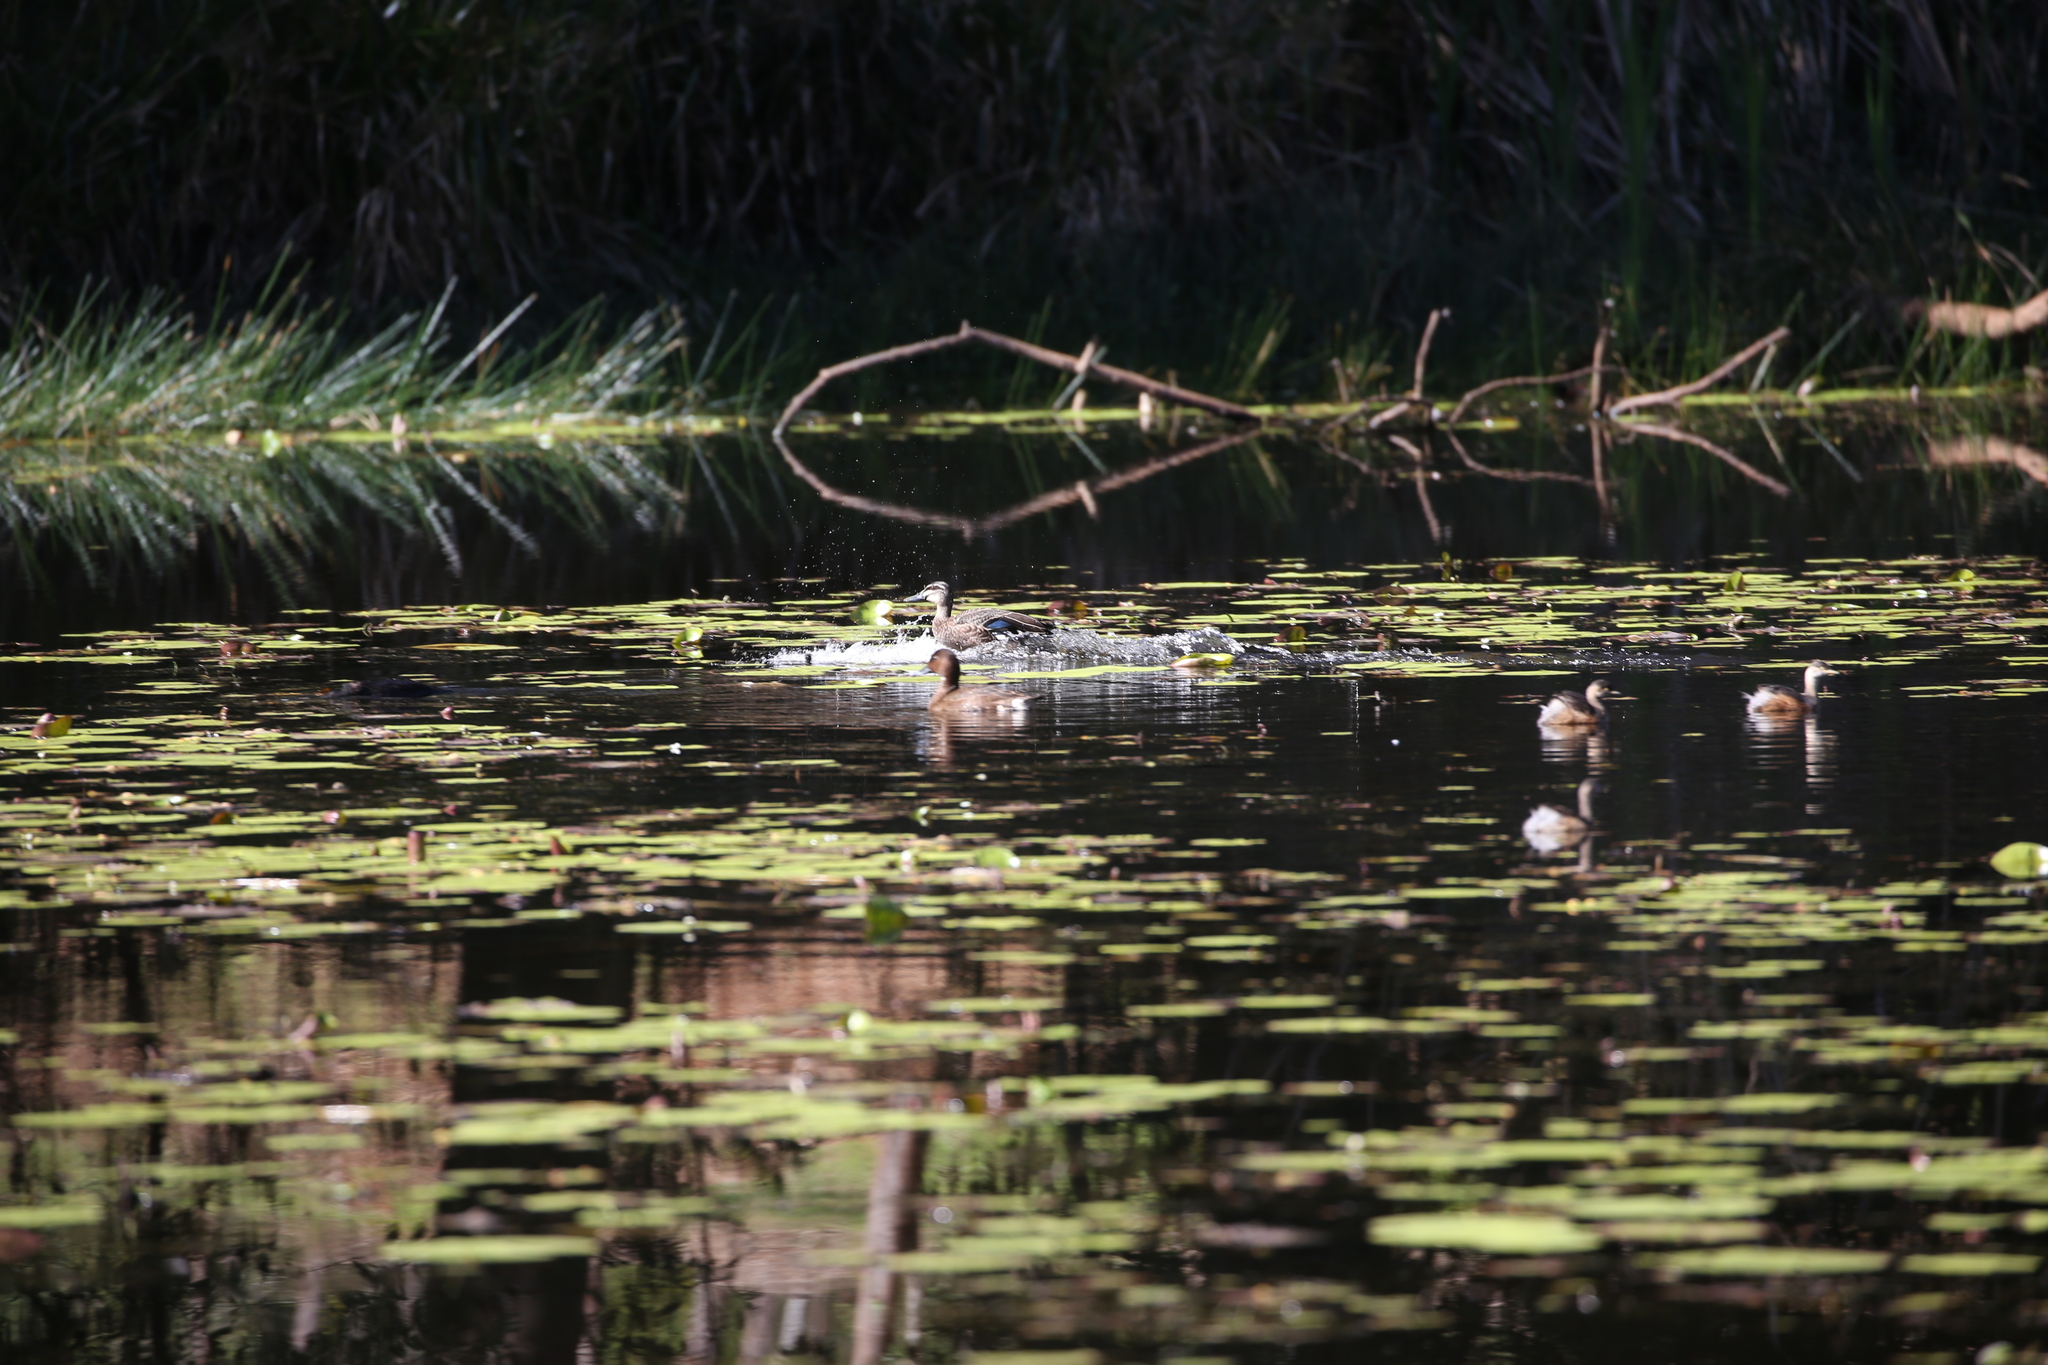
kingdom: Animalia
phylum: Chordata
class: Aves
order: Anseriformes
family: Anatidae
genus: Anas
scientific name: Anas superciliosa
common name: Pacific black duck
